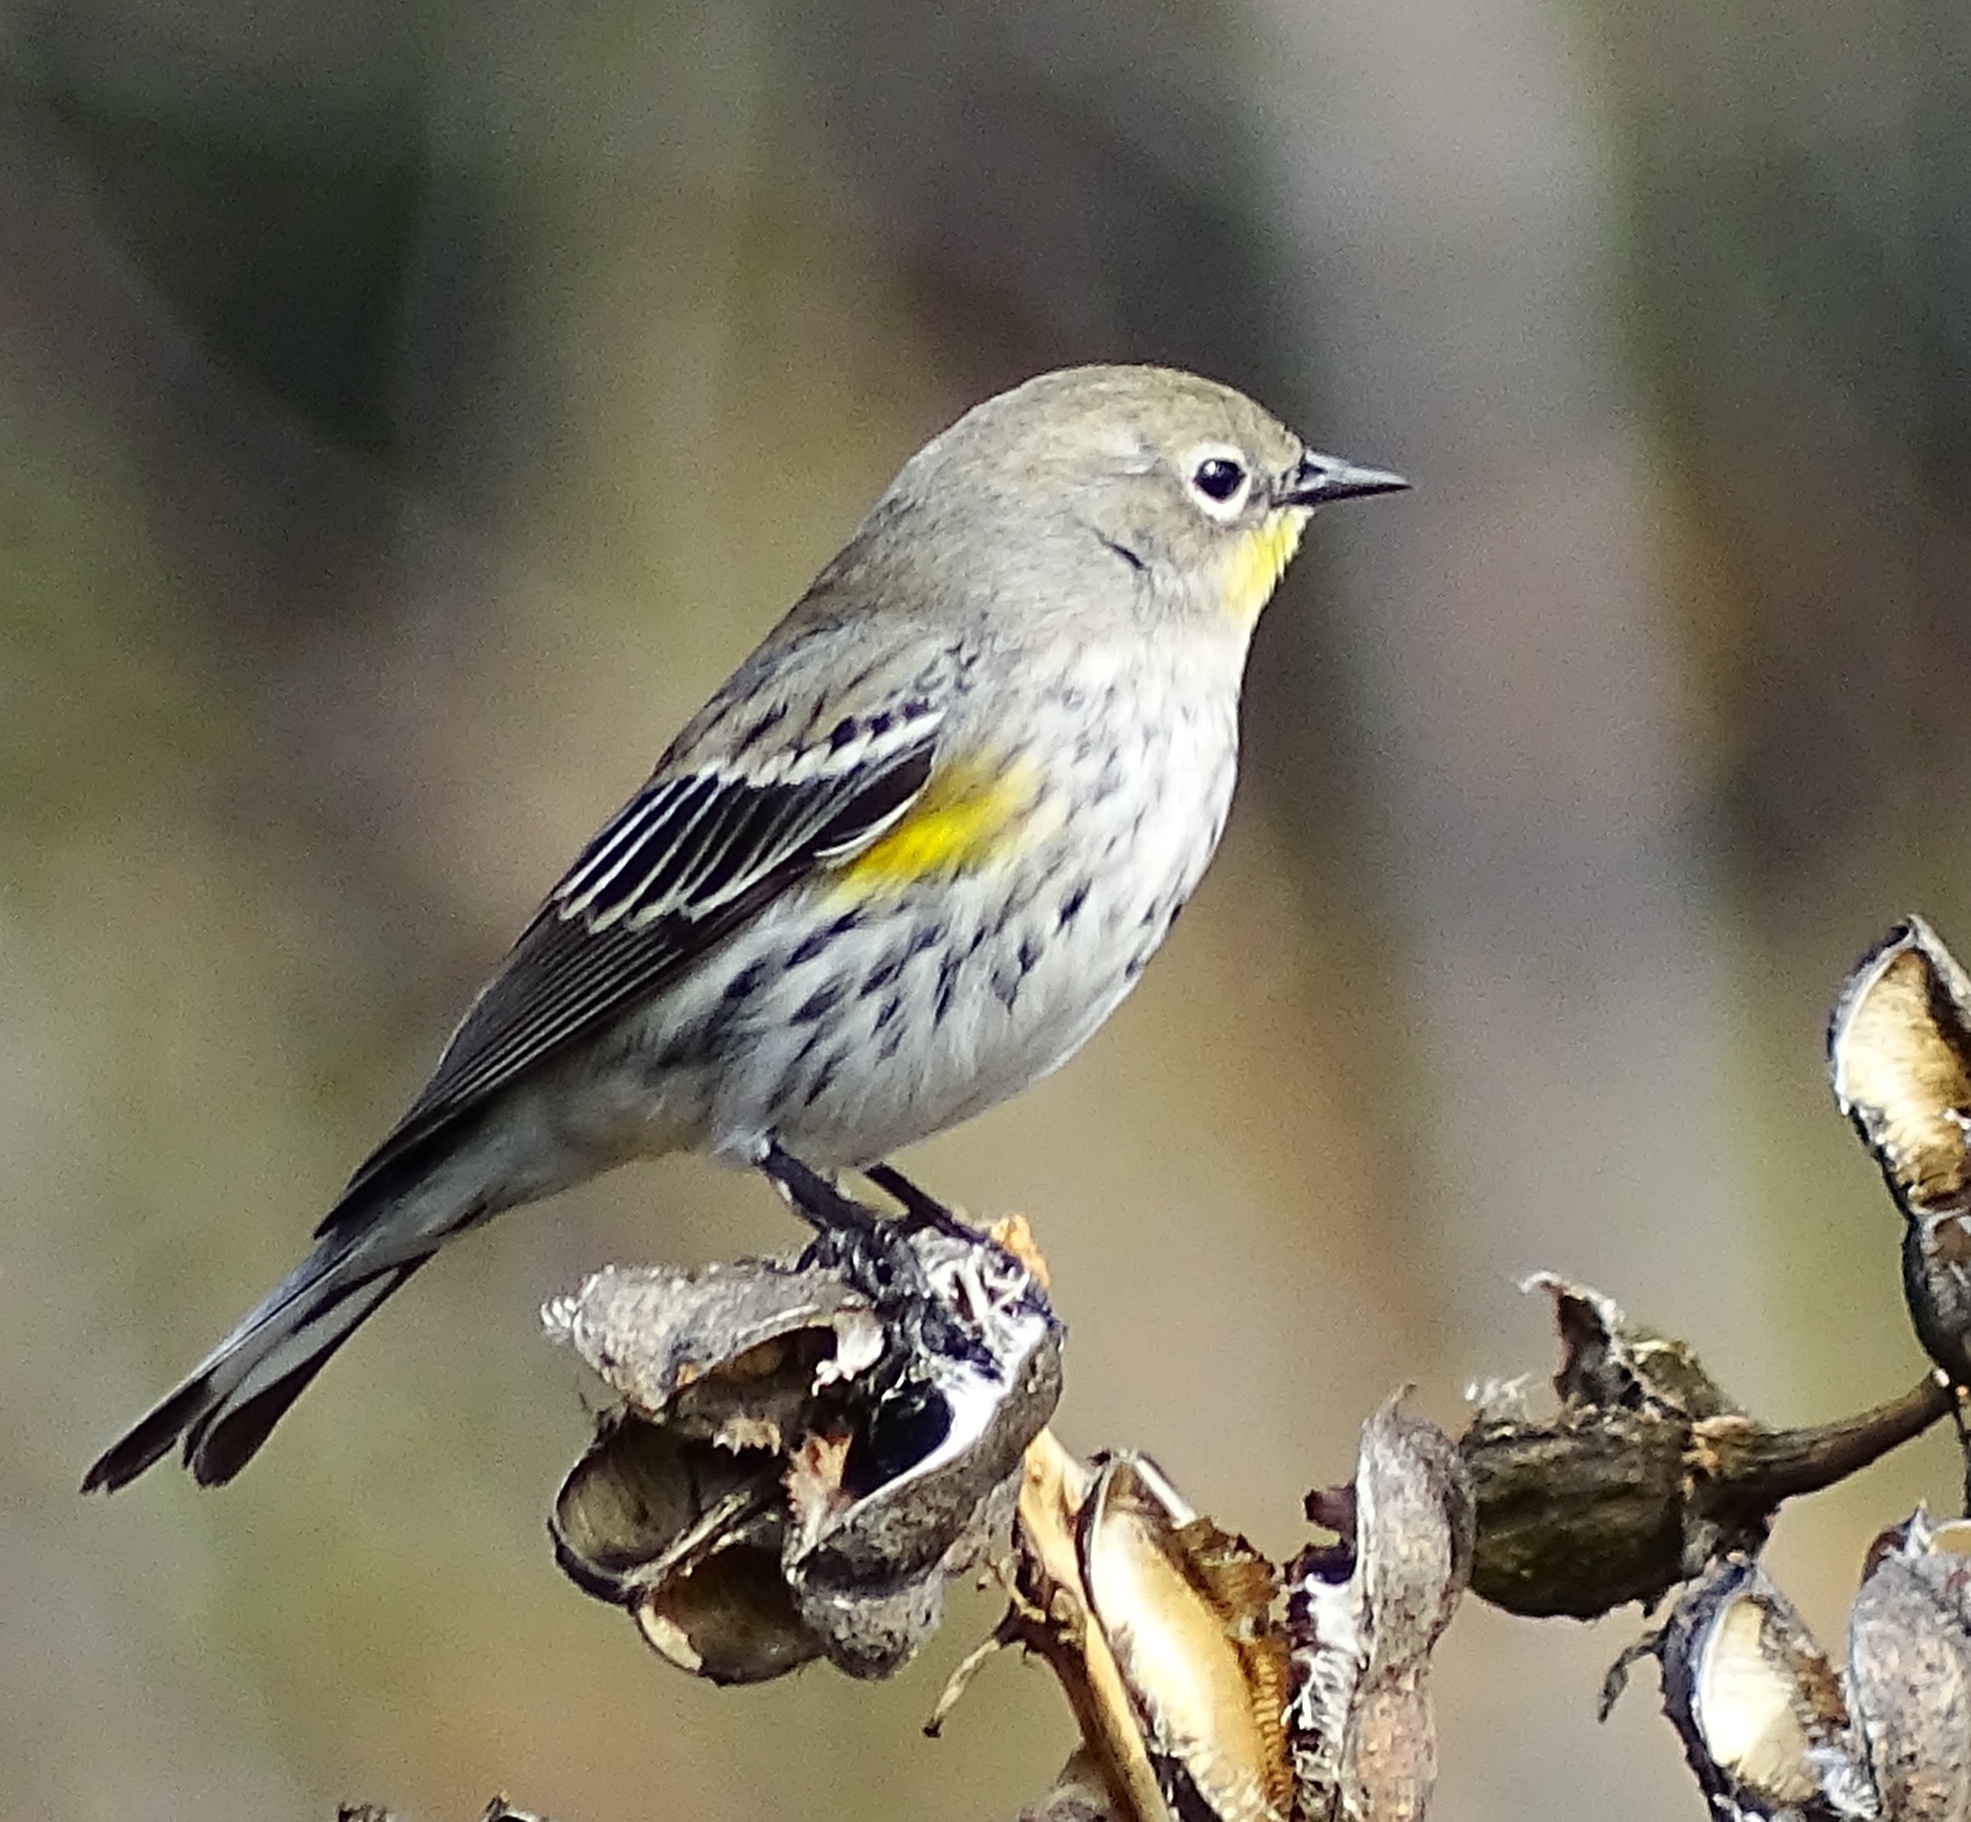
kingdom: Animalia
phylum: Chordata
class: Aves
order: Passeriformes
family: Parulidae
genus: Setophaga
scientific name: Setophaga coronata
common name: Myrtle warbler
